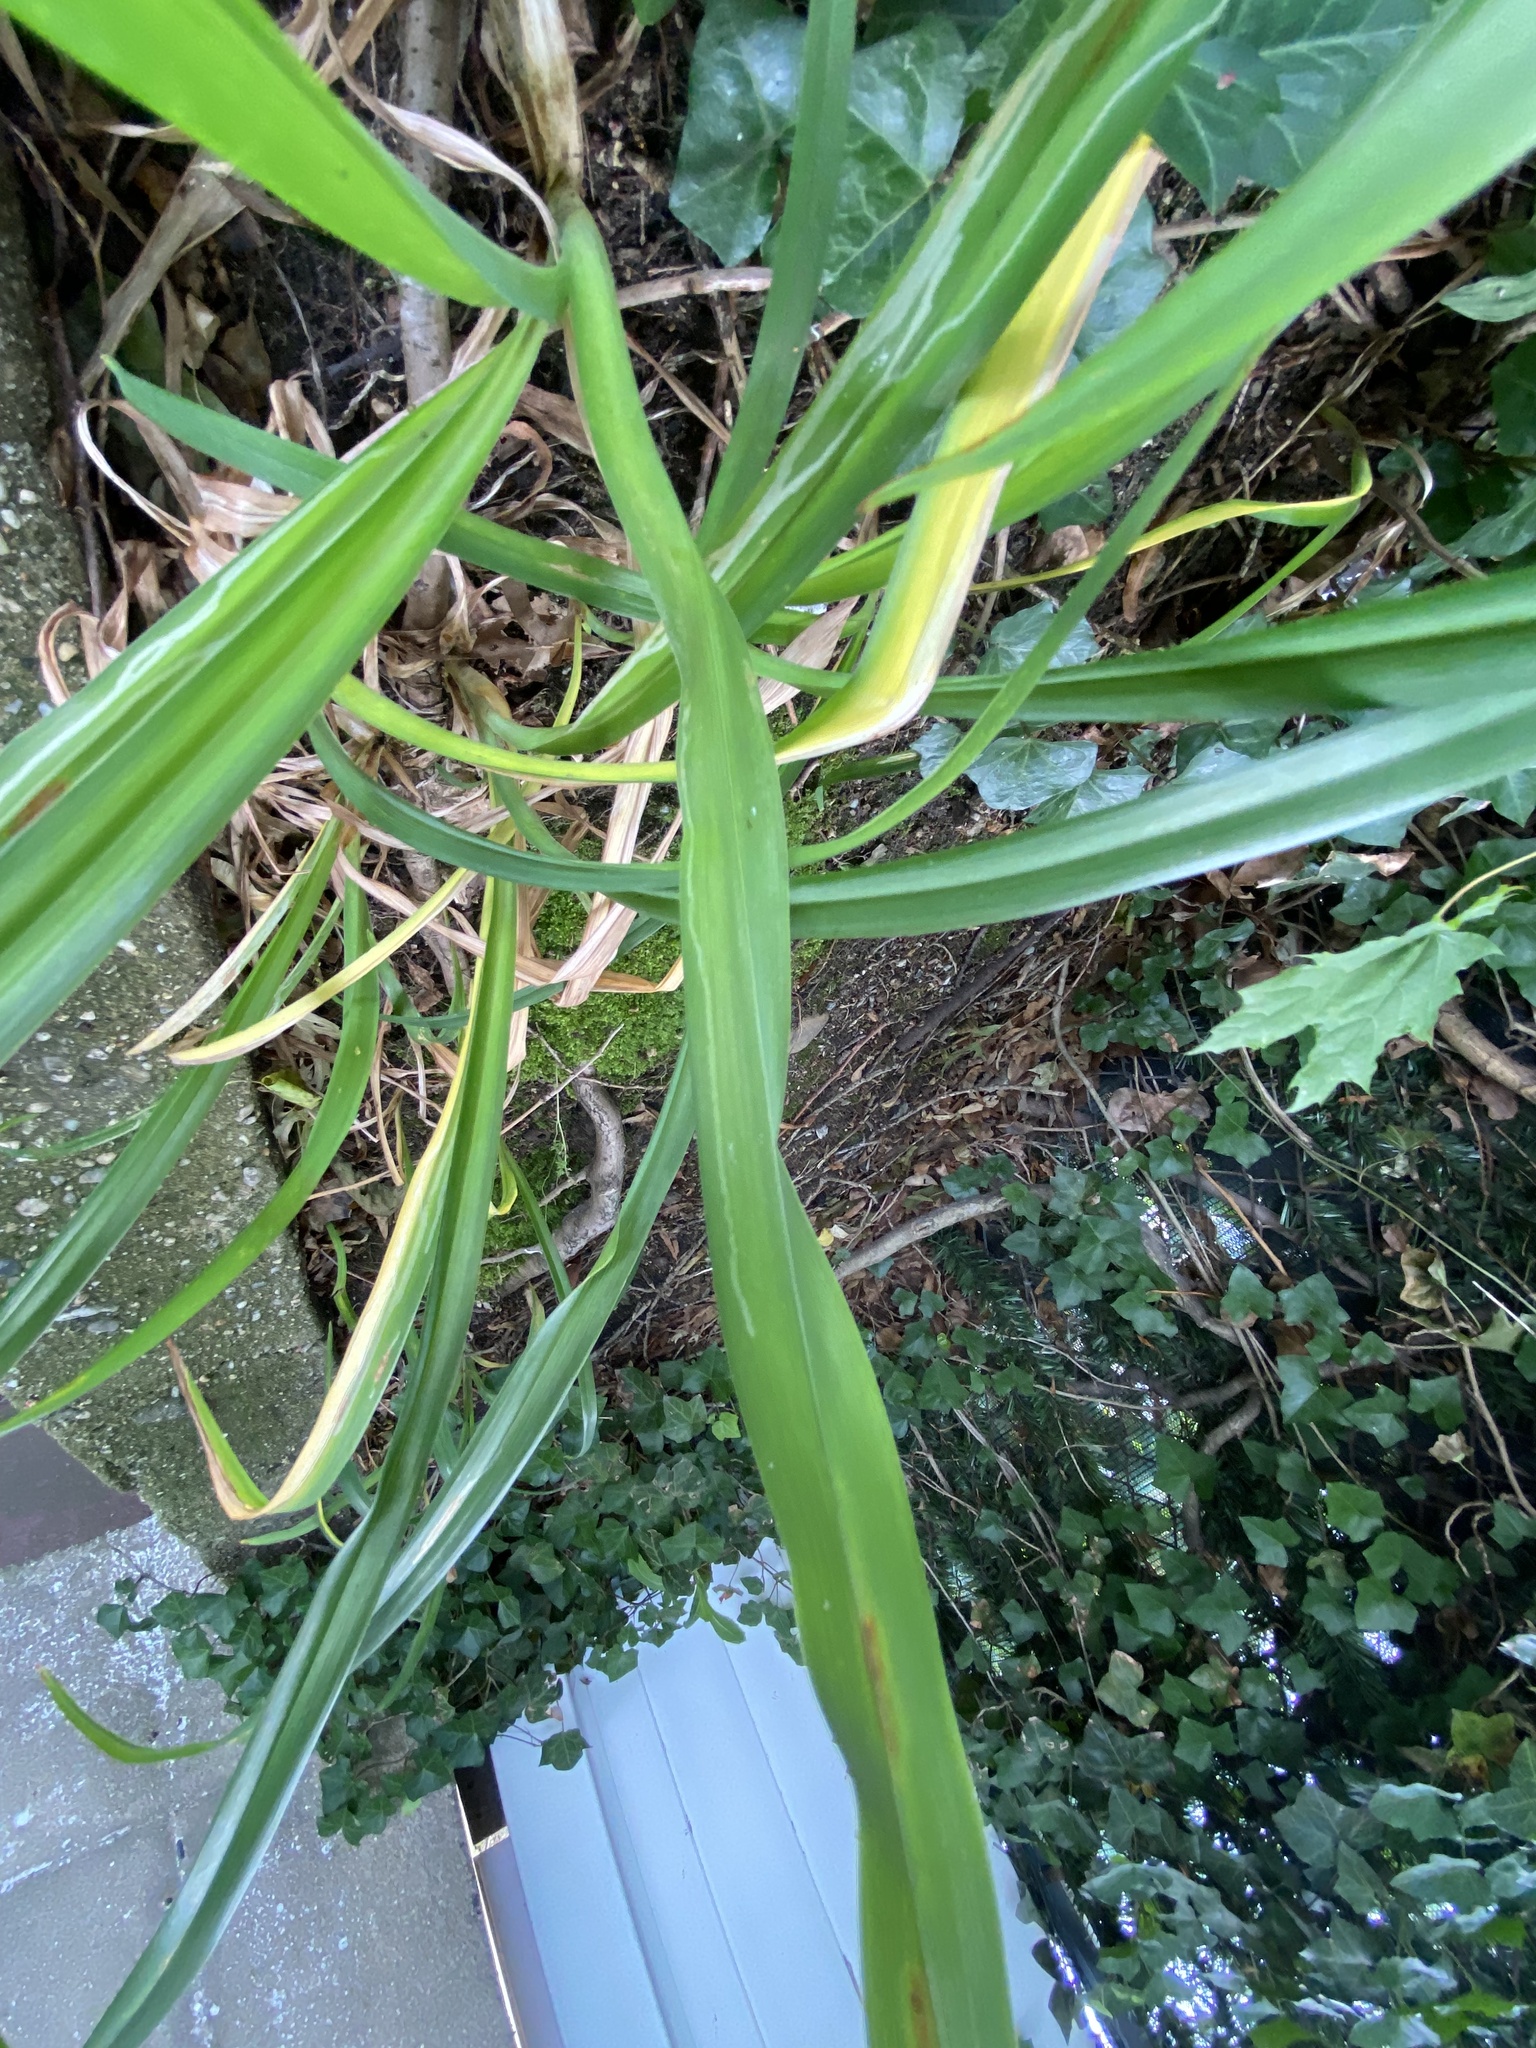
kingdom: Animalia
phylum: Arthropoda
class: Insecta
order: Diptera
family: Agromyzidae
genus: Ophiomyia
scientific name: Ophiomyia kwansonis
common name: Daylily leafminer
